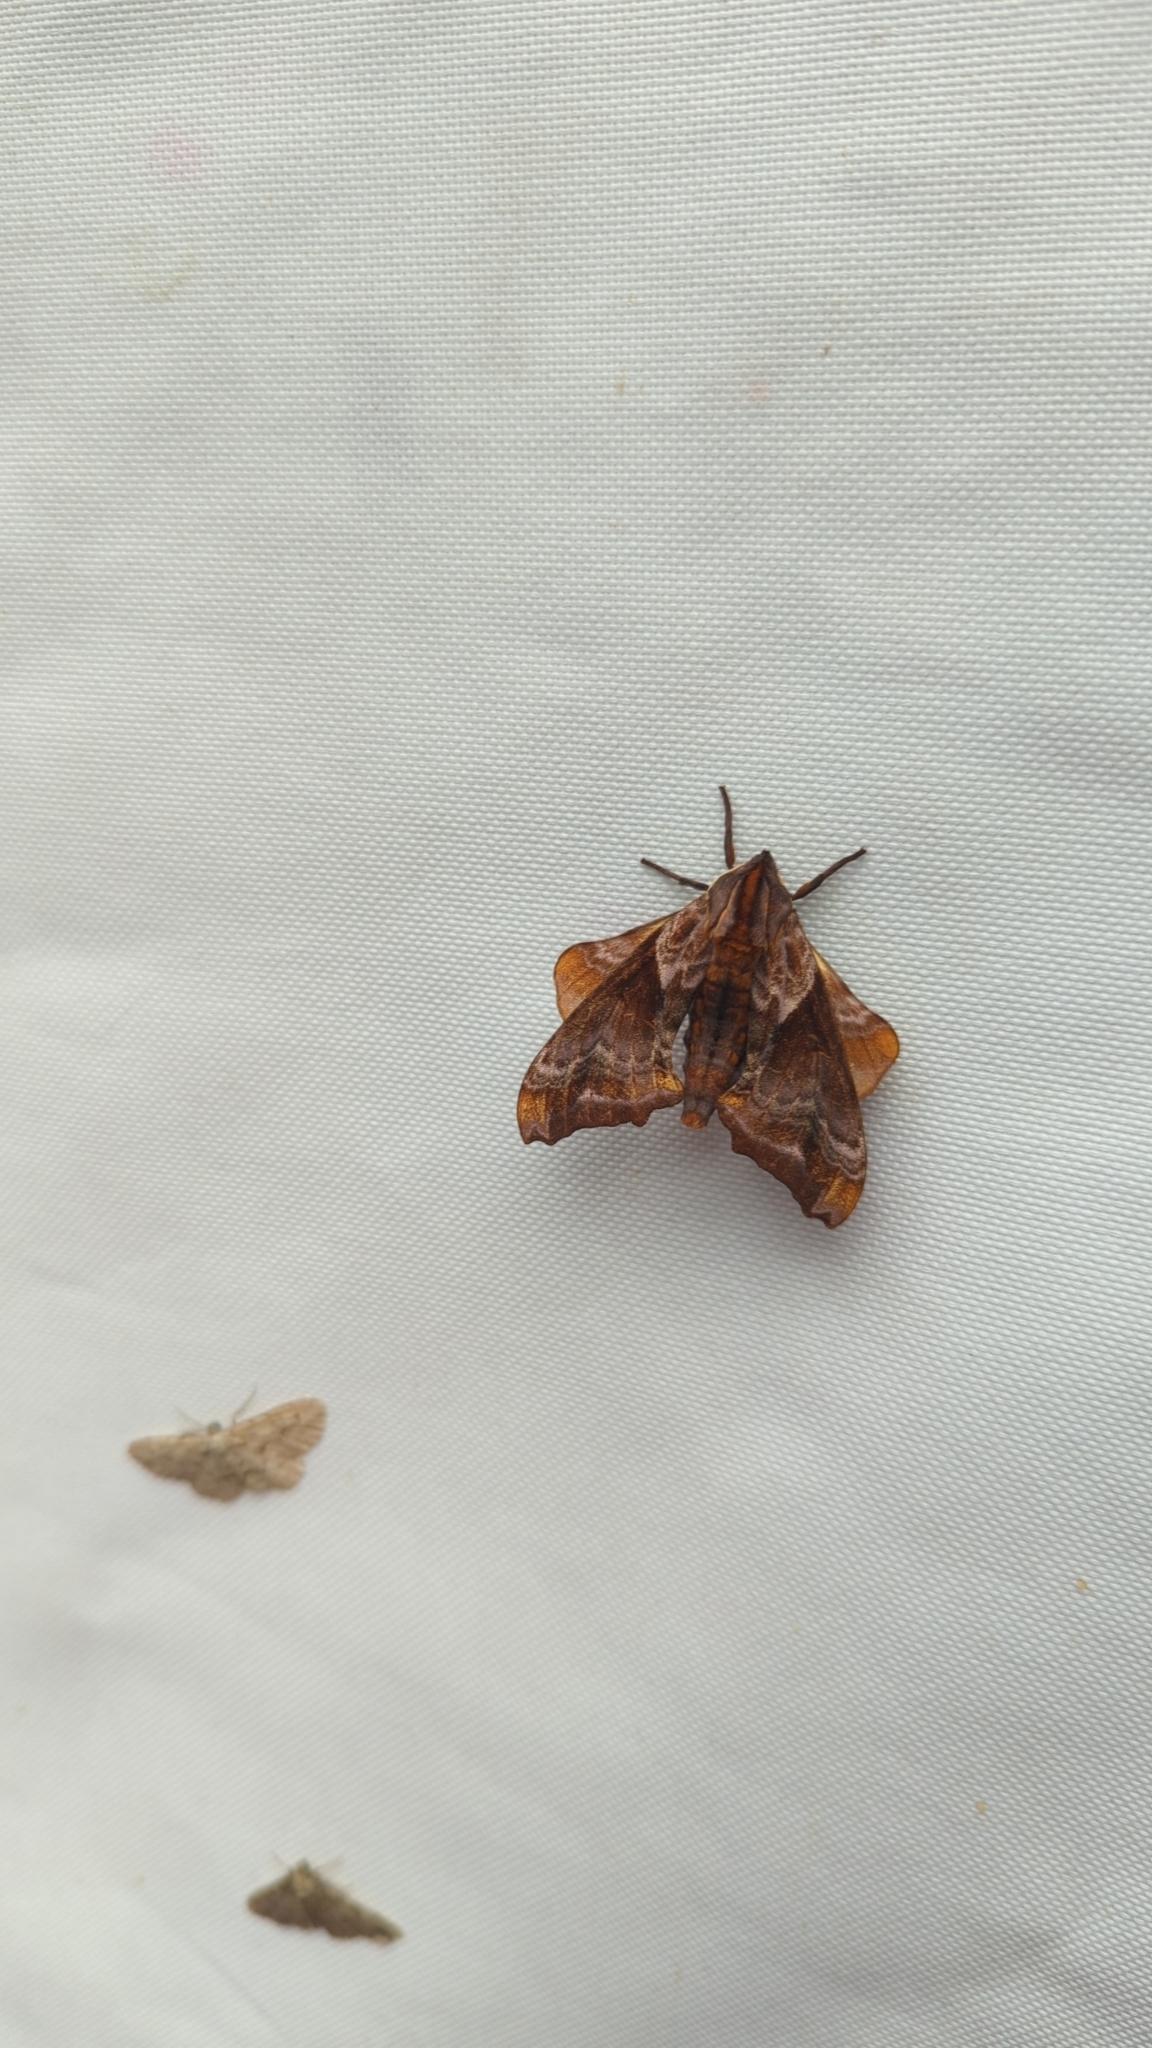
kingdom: Animalia
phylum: Arthropoda
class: Insecta
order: Lepidoptera
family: Sphingidae
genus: Paonias
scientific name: Paonias myops
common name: Small-eyed sphinx
